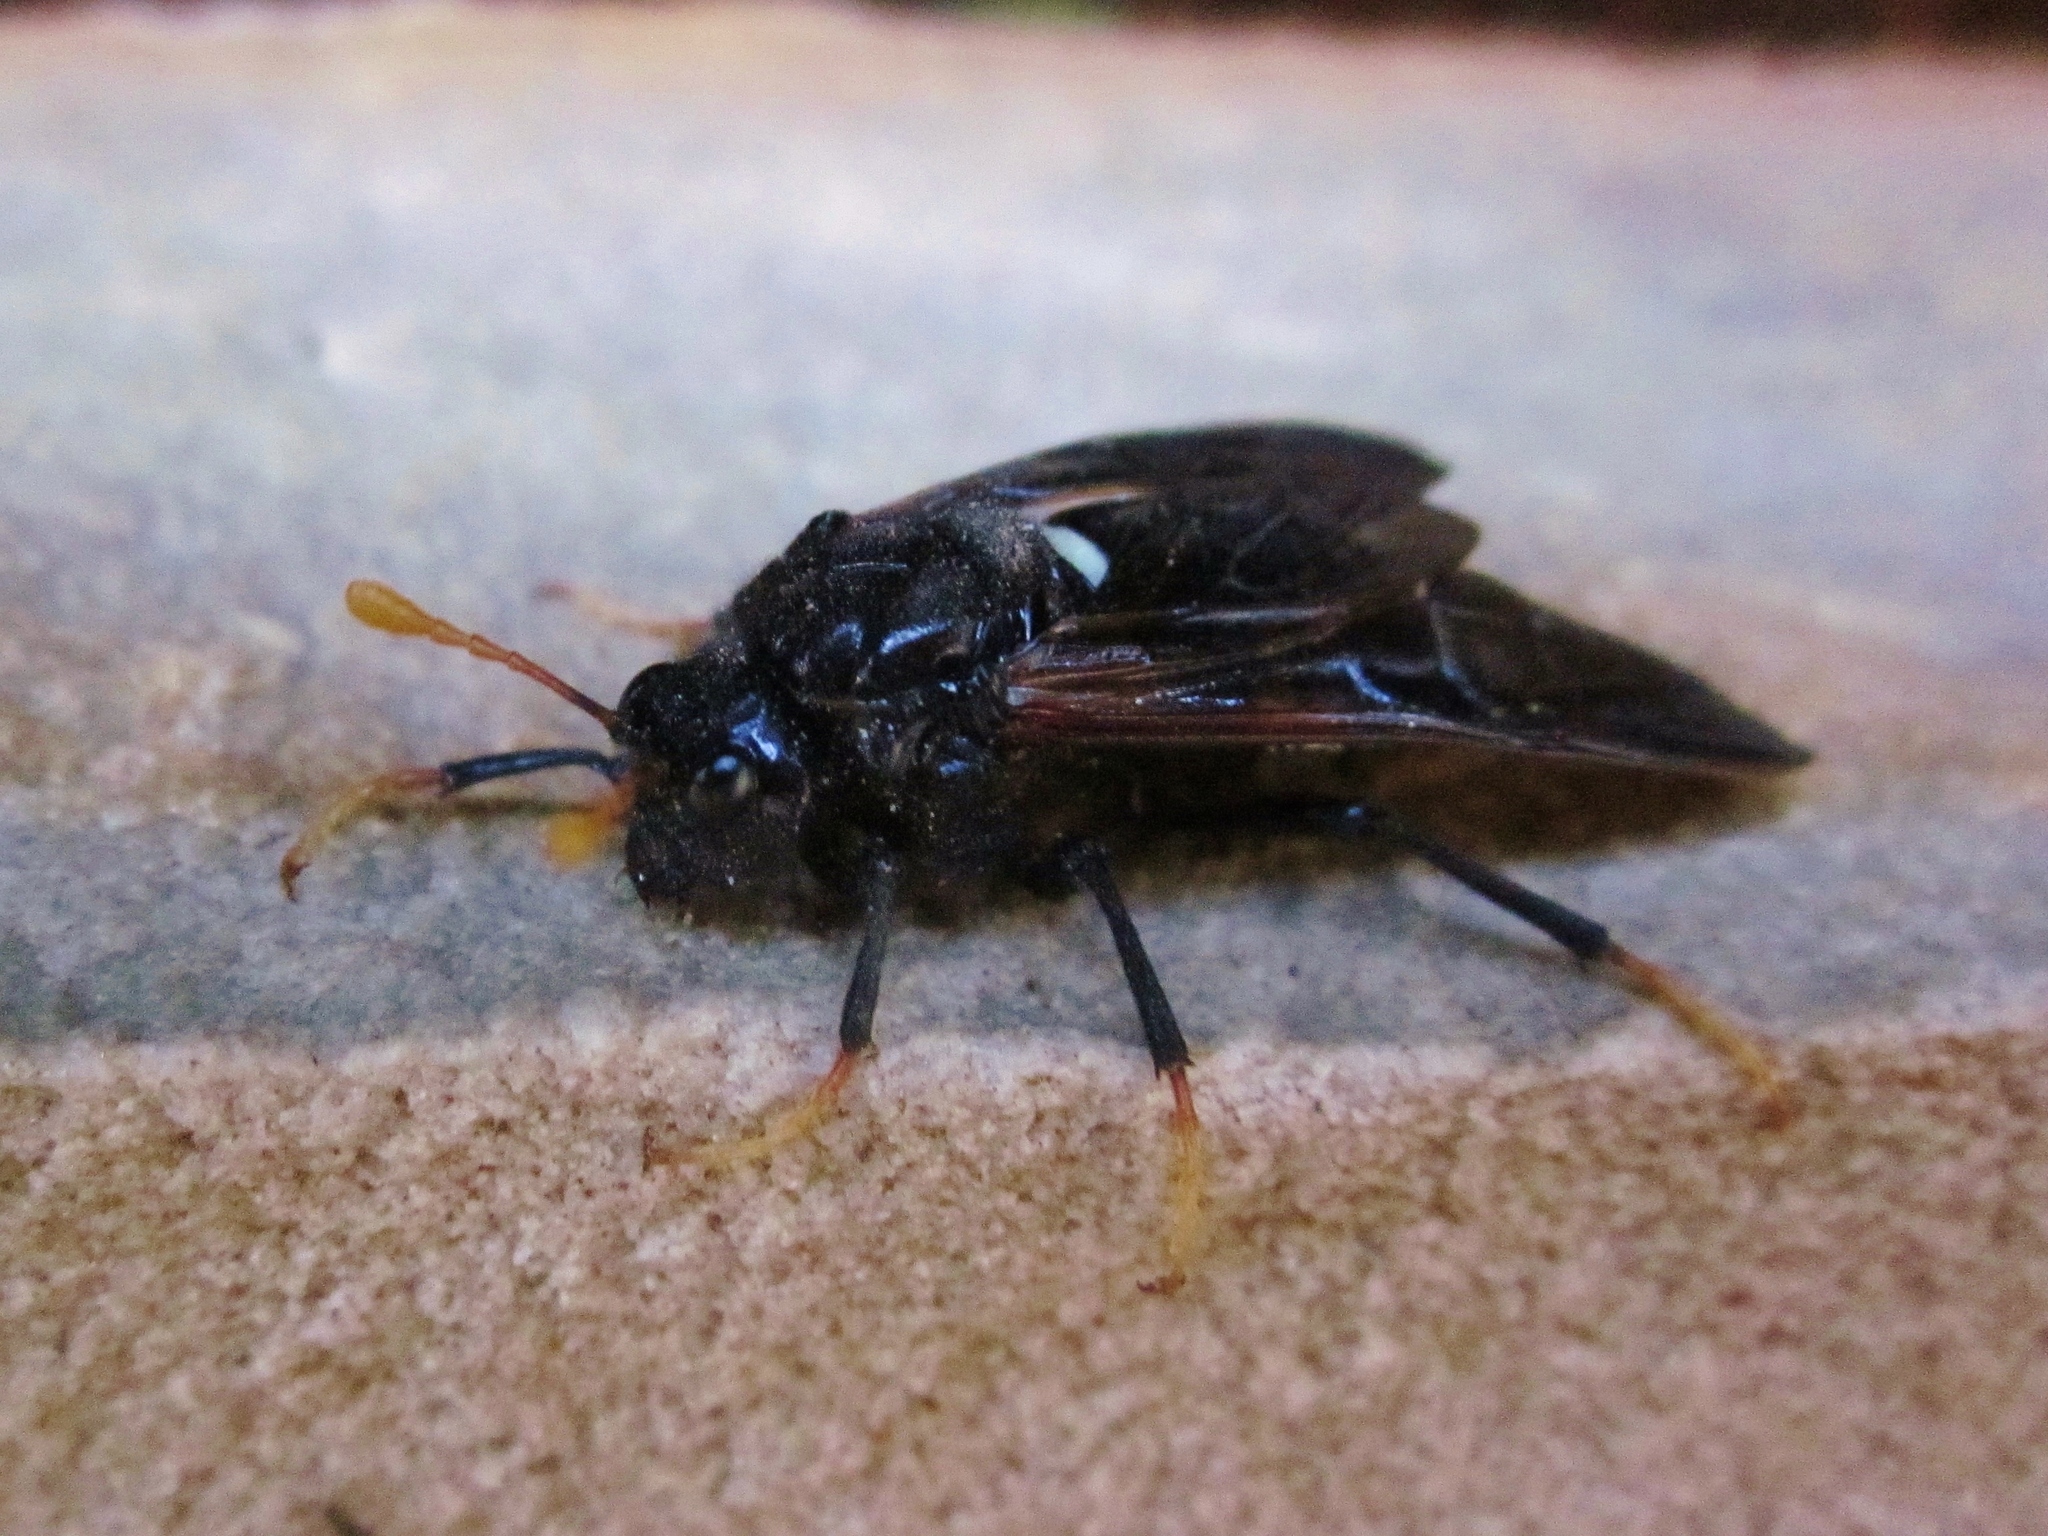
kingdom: Animalia
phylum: Arthropoda
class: Insecta
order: Hymenoptera
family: Cimbicidae
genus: Cimbex
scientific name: Cimbex americana
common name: Elm sawfly
